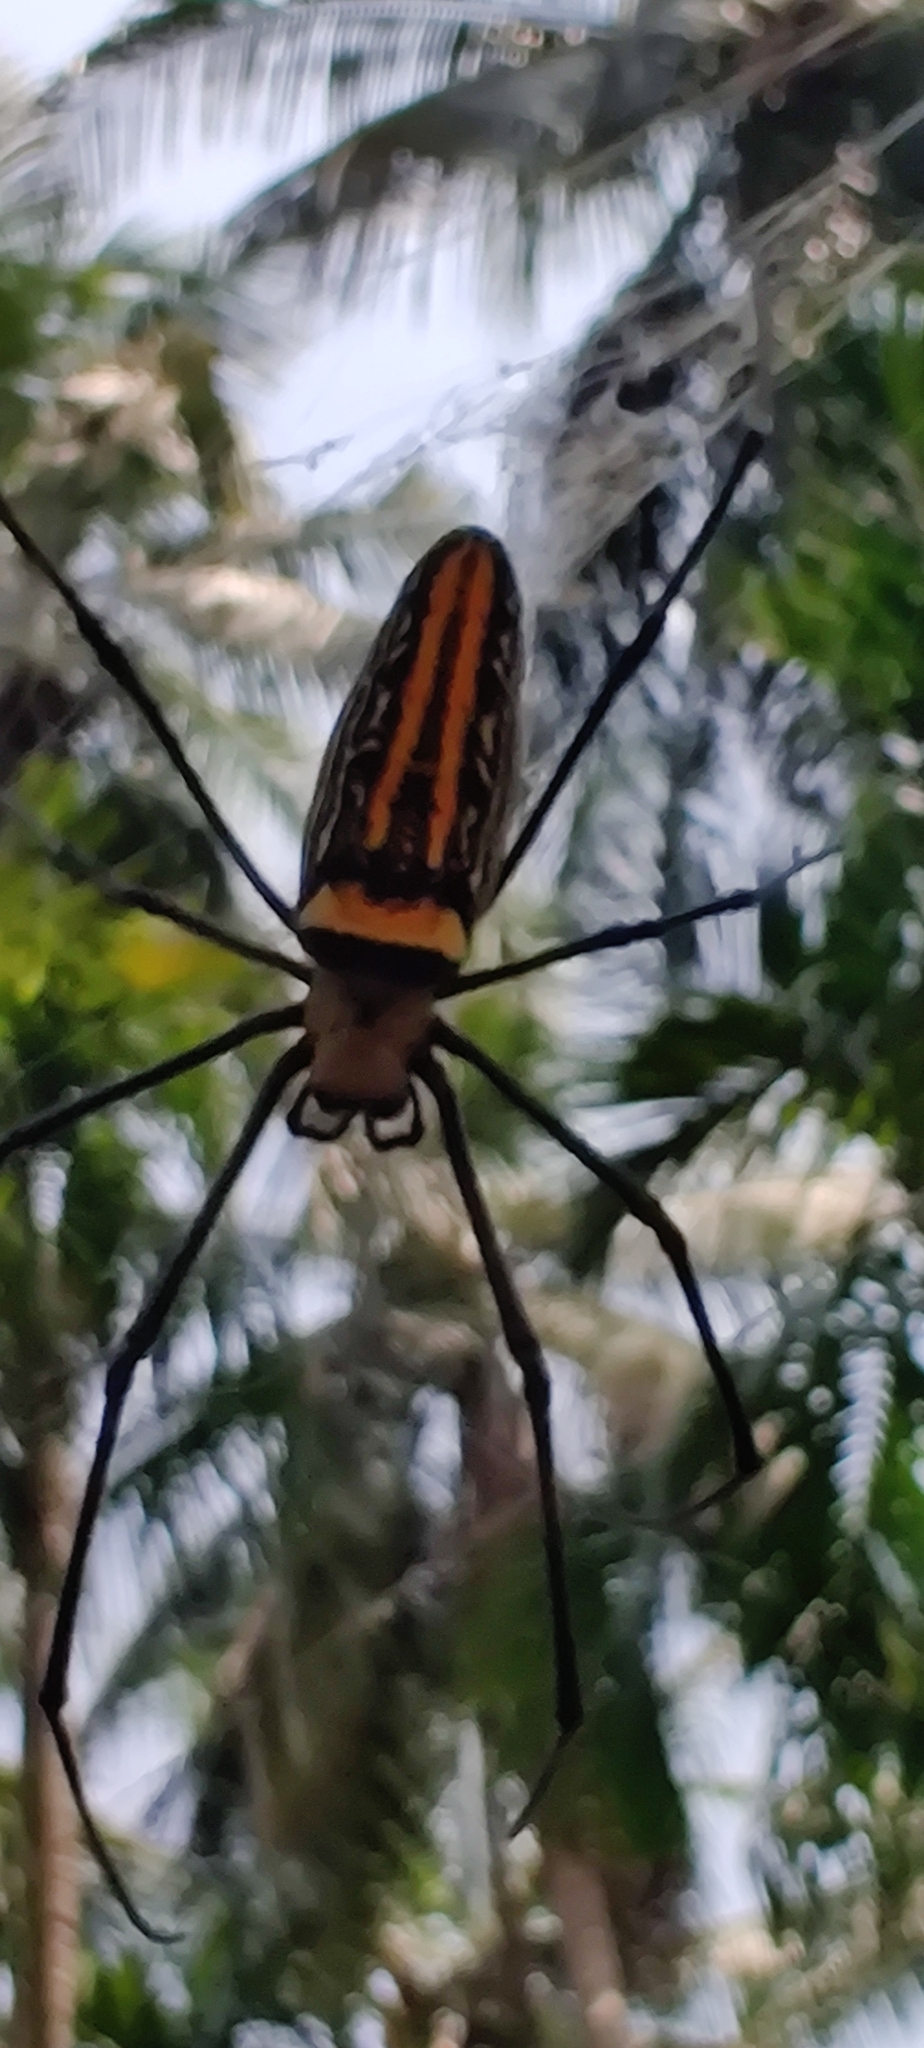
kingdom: Animalia
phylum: Arthropoda
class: Arachnida
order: Araneae
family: Araneidae
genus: Nephila
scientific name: Nephila pilipes
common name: Giant golden orb weaver
